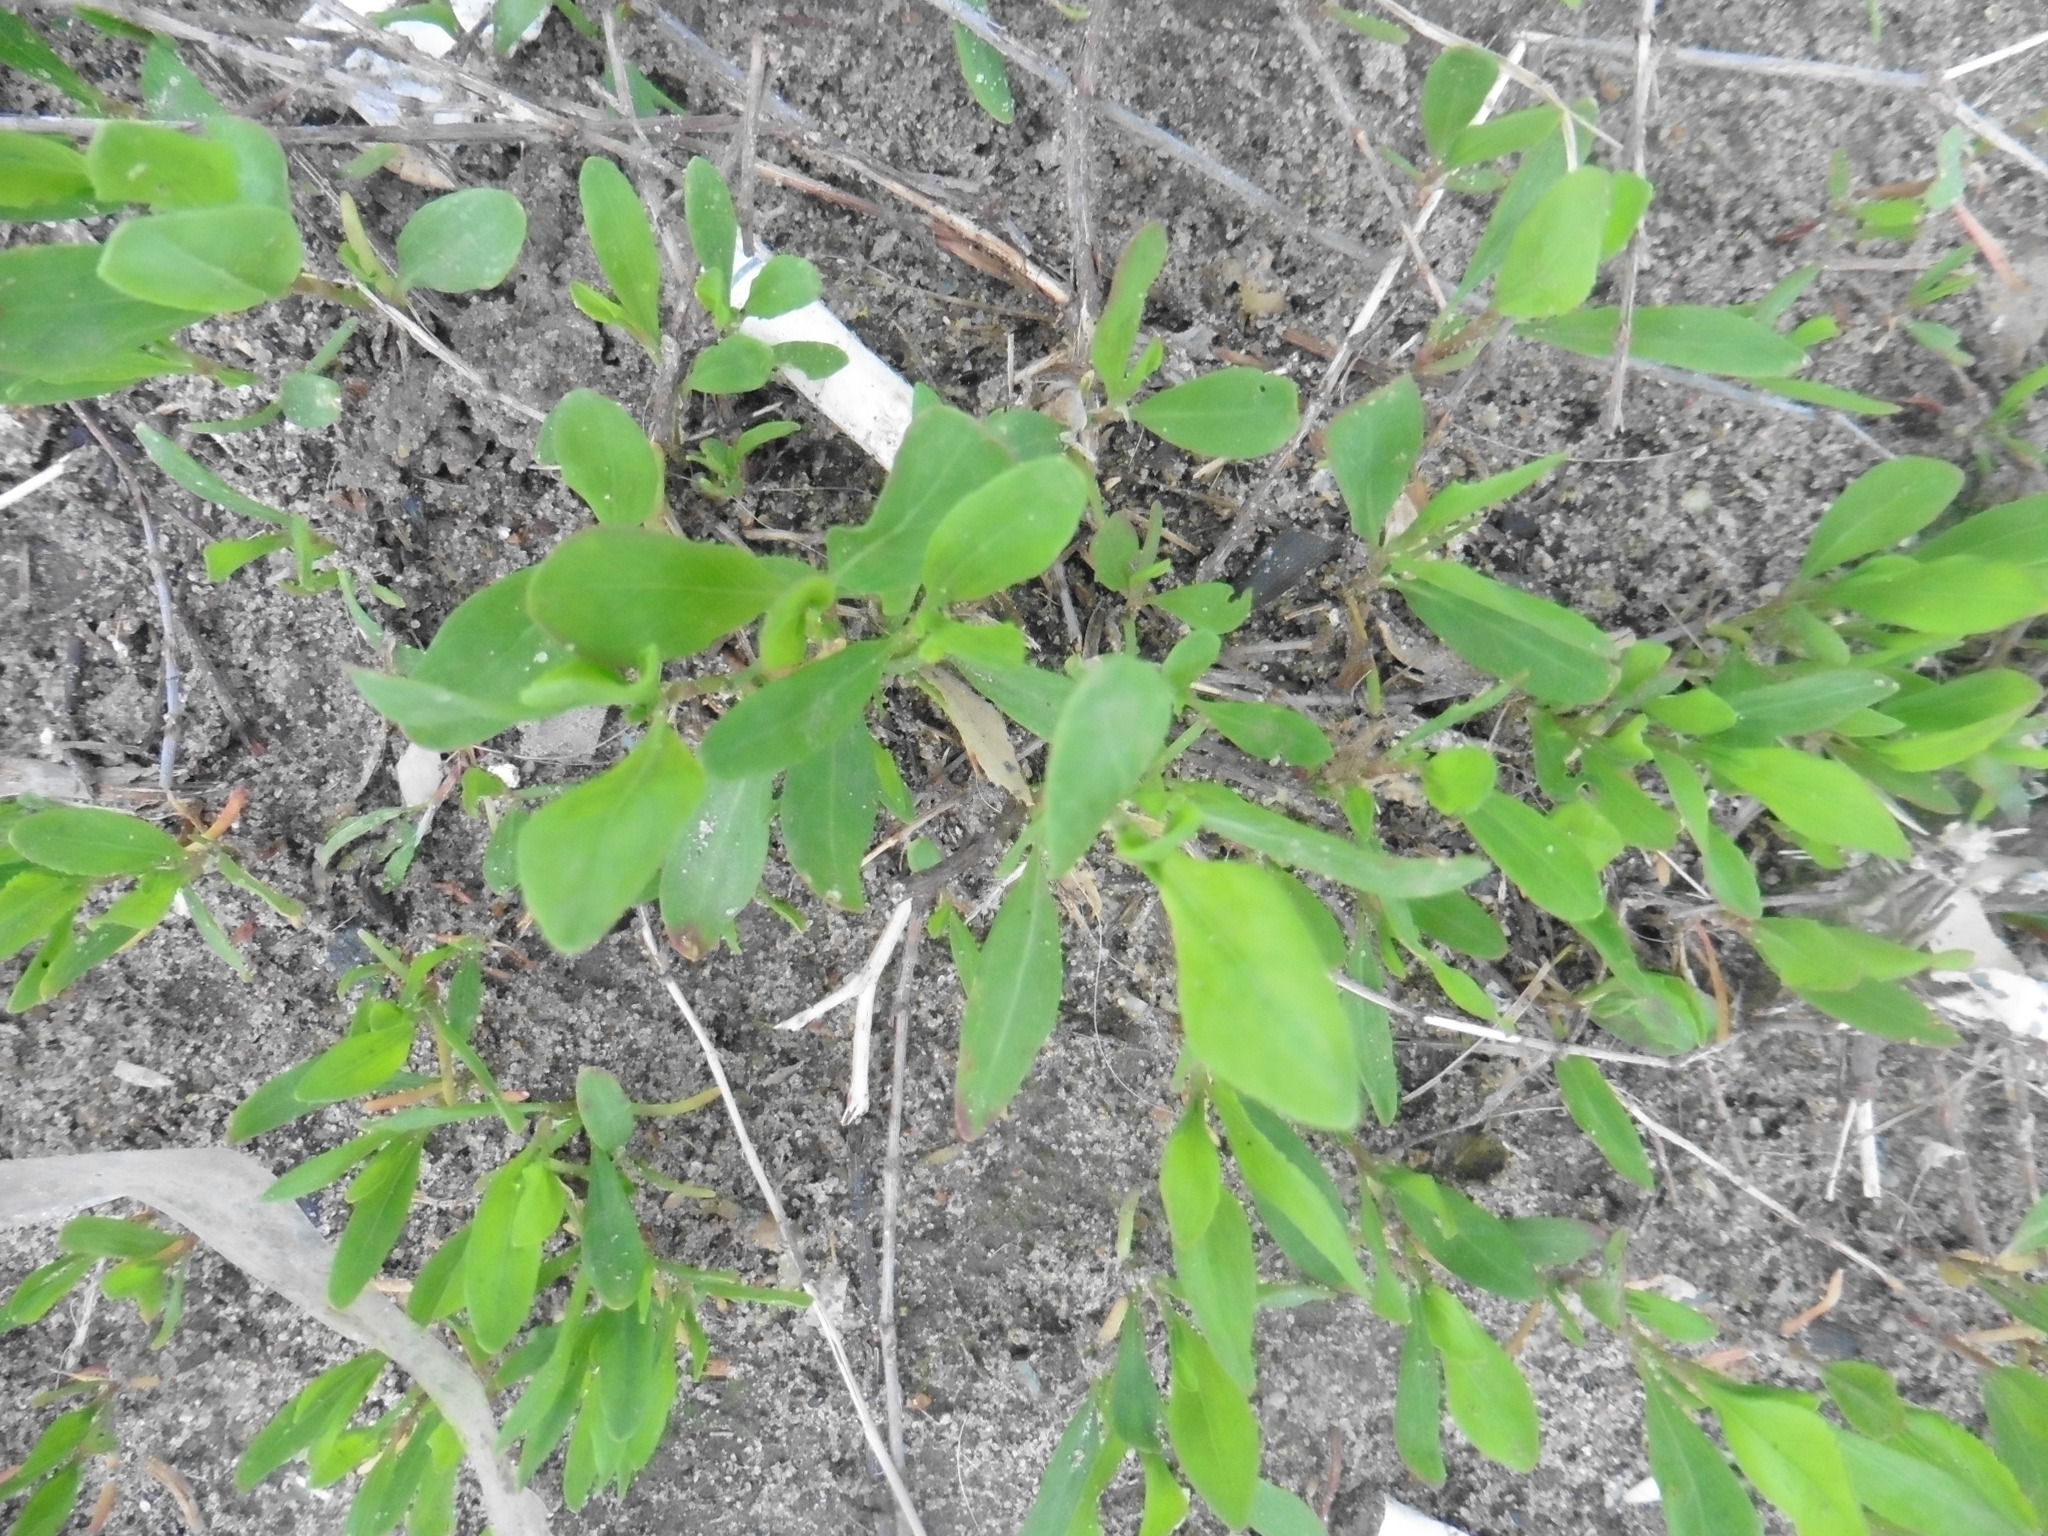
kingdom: Plantae
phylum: Tracheophyta
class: Magnoliopsida
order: Caryophyllales
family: Polygonaceae
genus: Polygonum
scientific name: Polygonum
